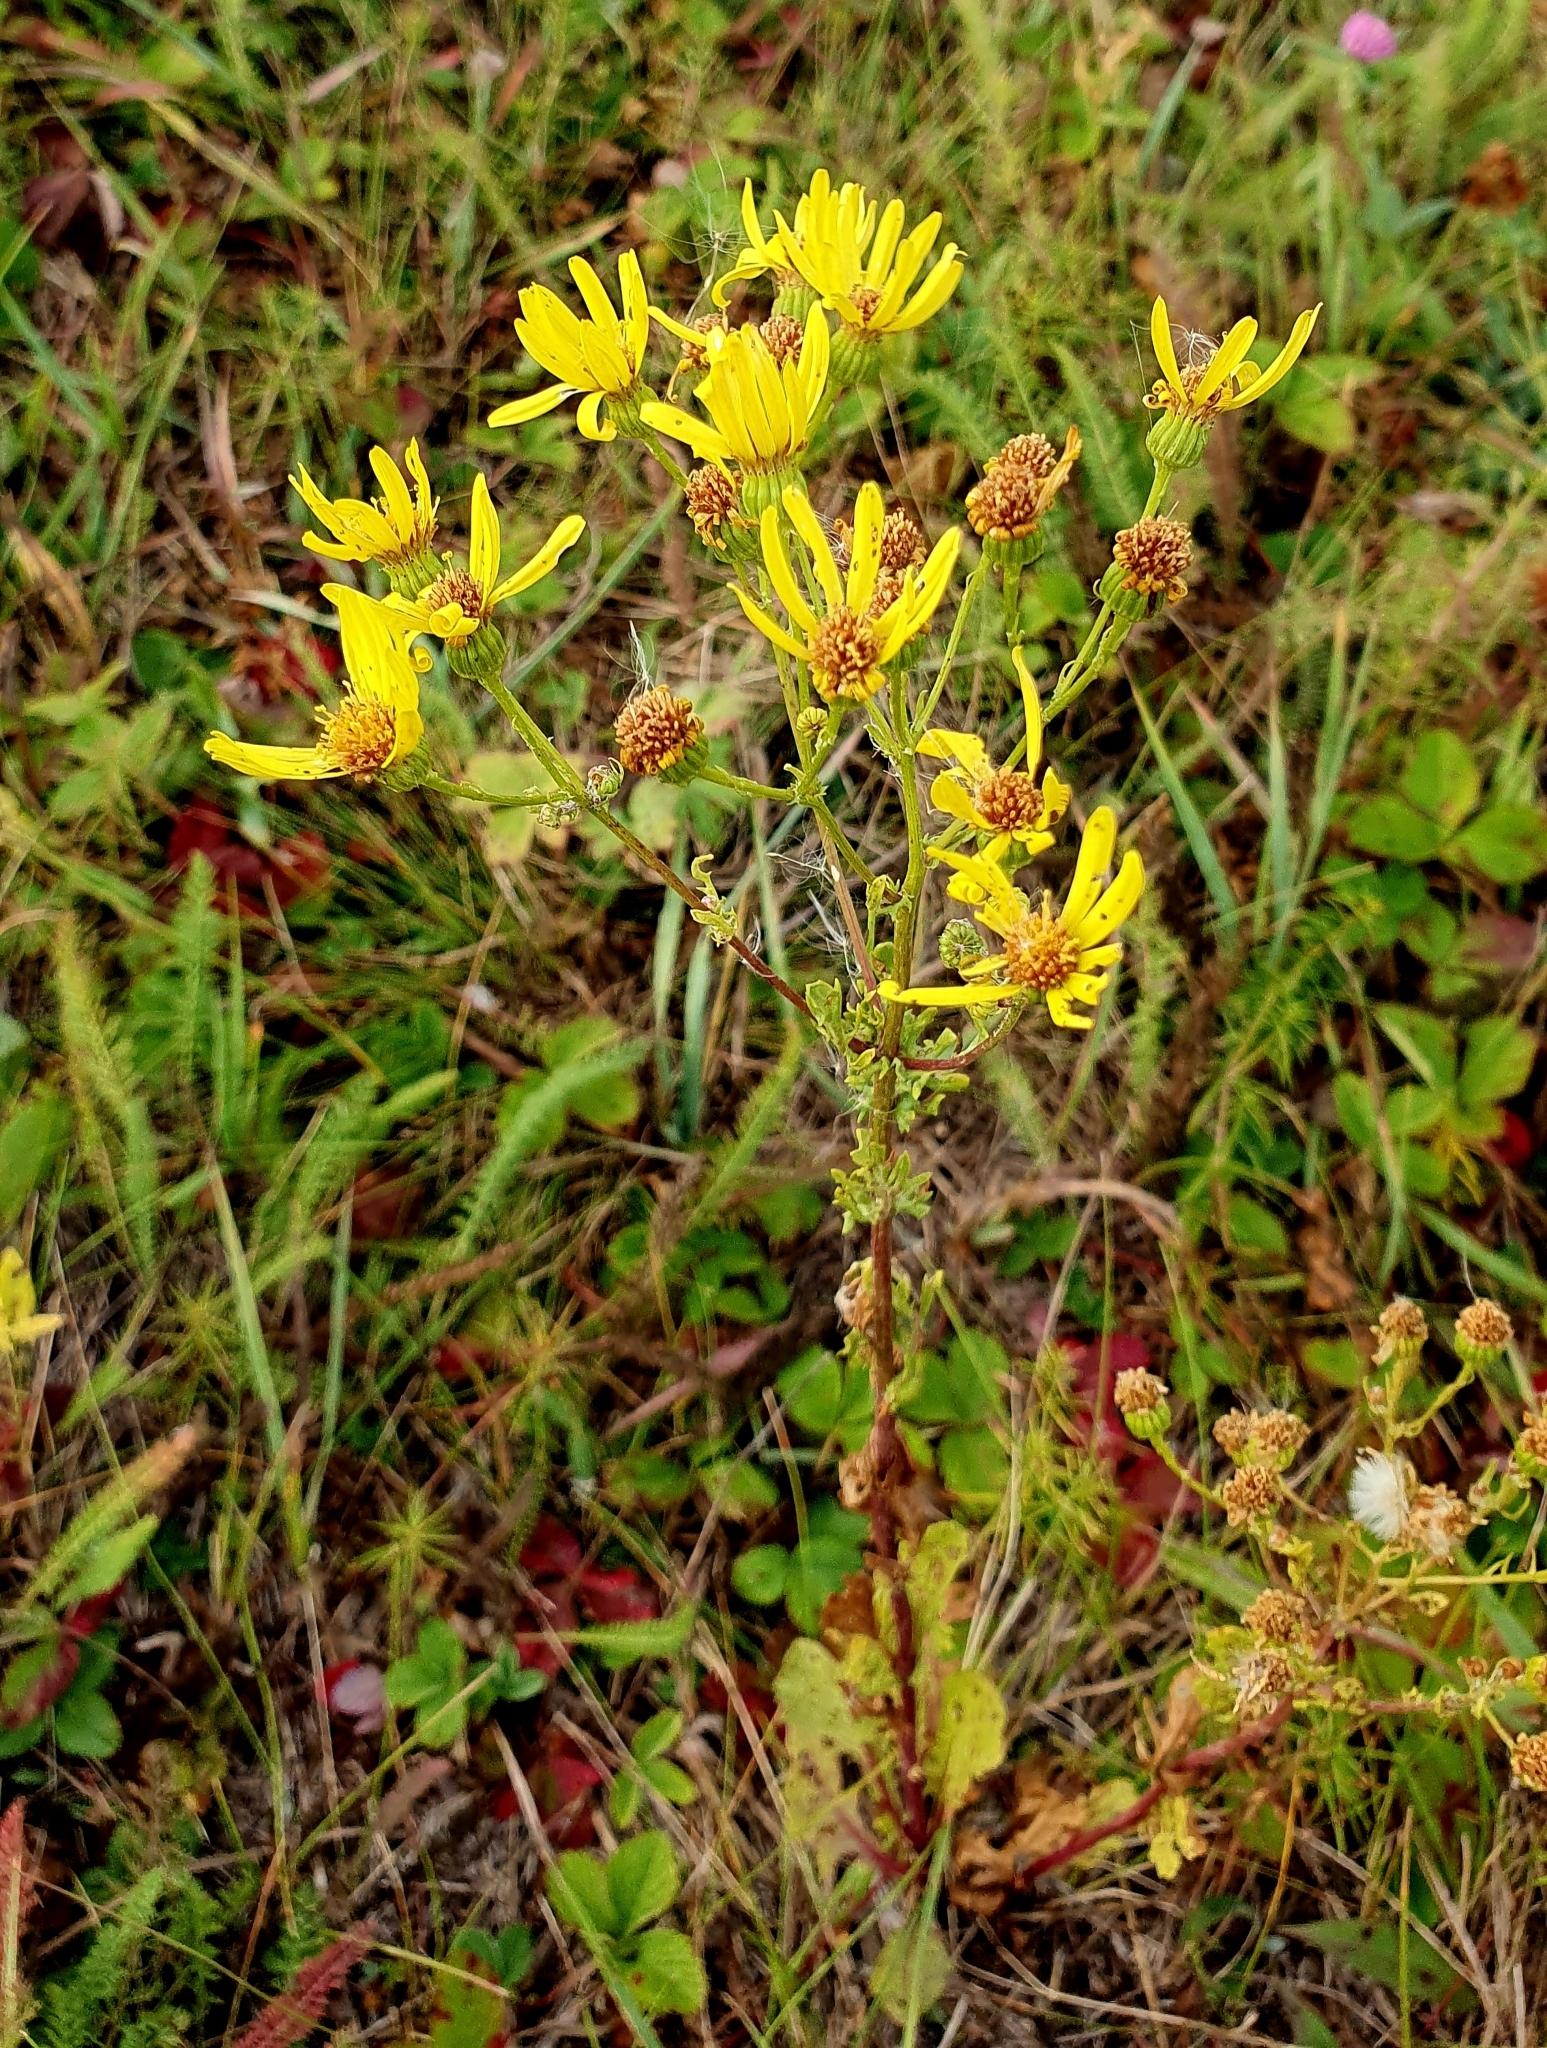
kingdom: Plantae
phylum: Tracheophyta
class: Magnoliopsida
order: Asterales
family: Asteraceae
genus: Jacobaea
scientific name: Jacobaea vulgaris
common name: Stinking willie
